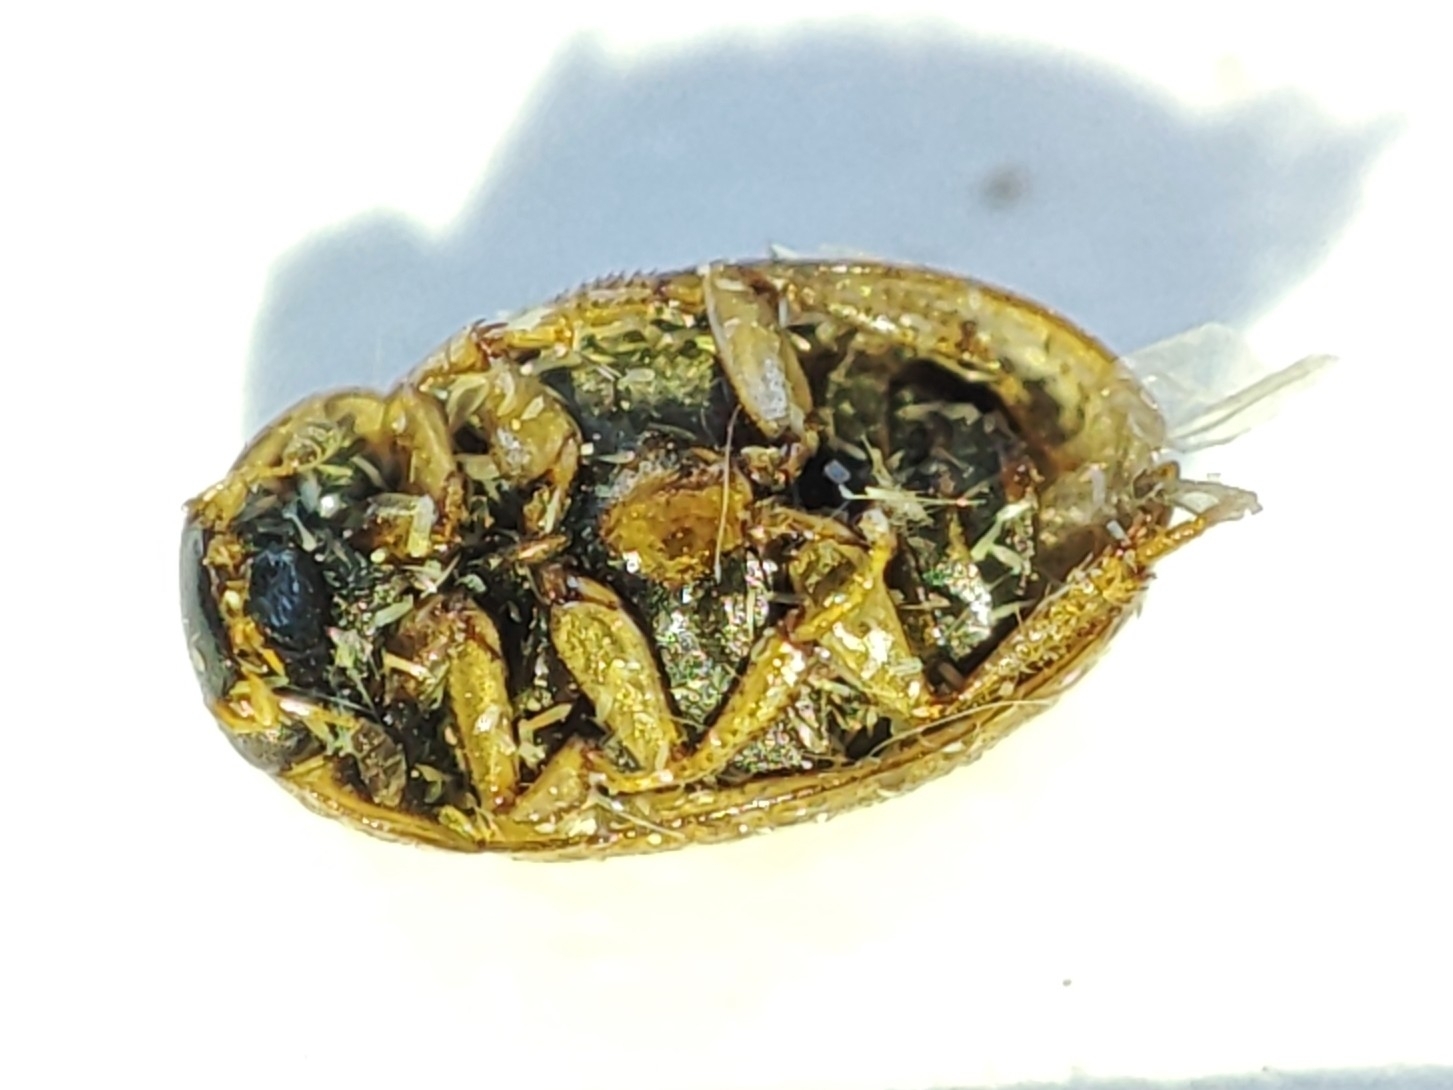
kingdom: Animalia
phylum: Arthropoda
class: Insecta
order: Coleoptera
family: Hydrophilidae
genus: Cercyon
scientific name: Cercyon laminatus
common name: Water scavenger beetle
